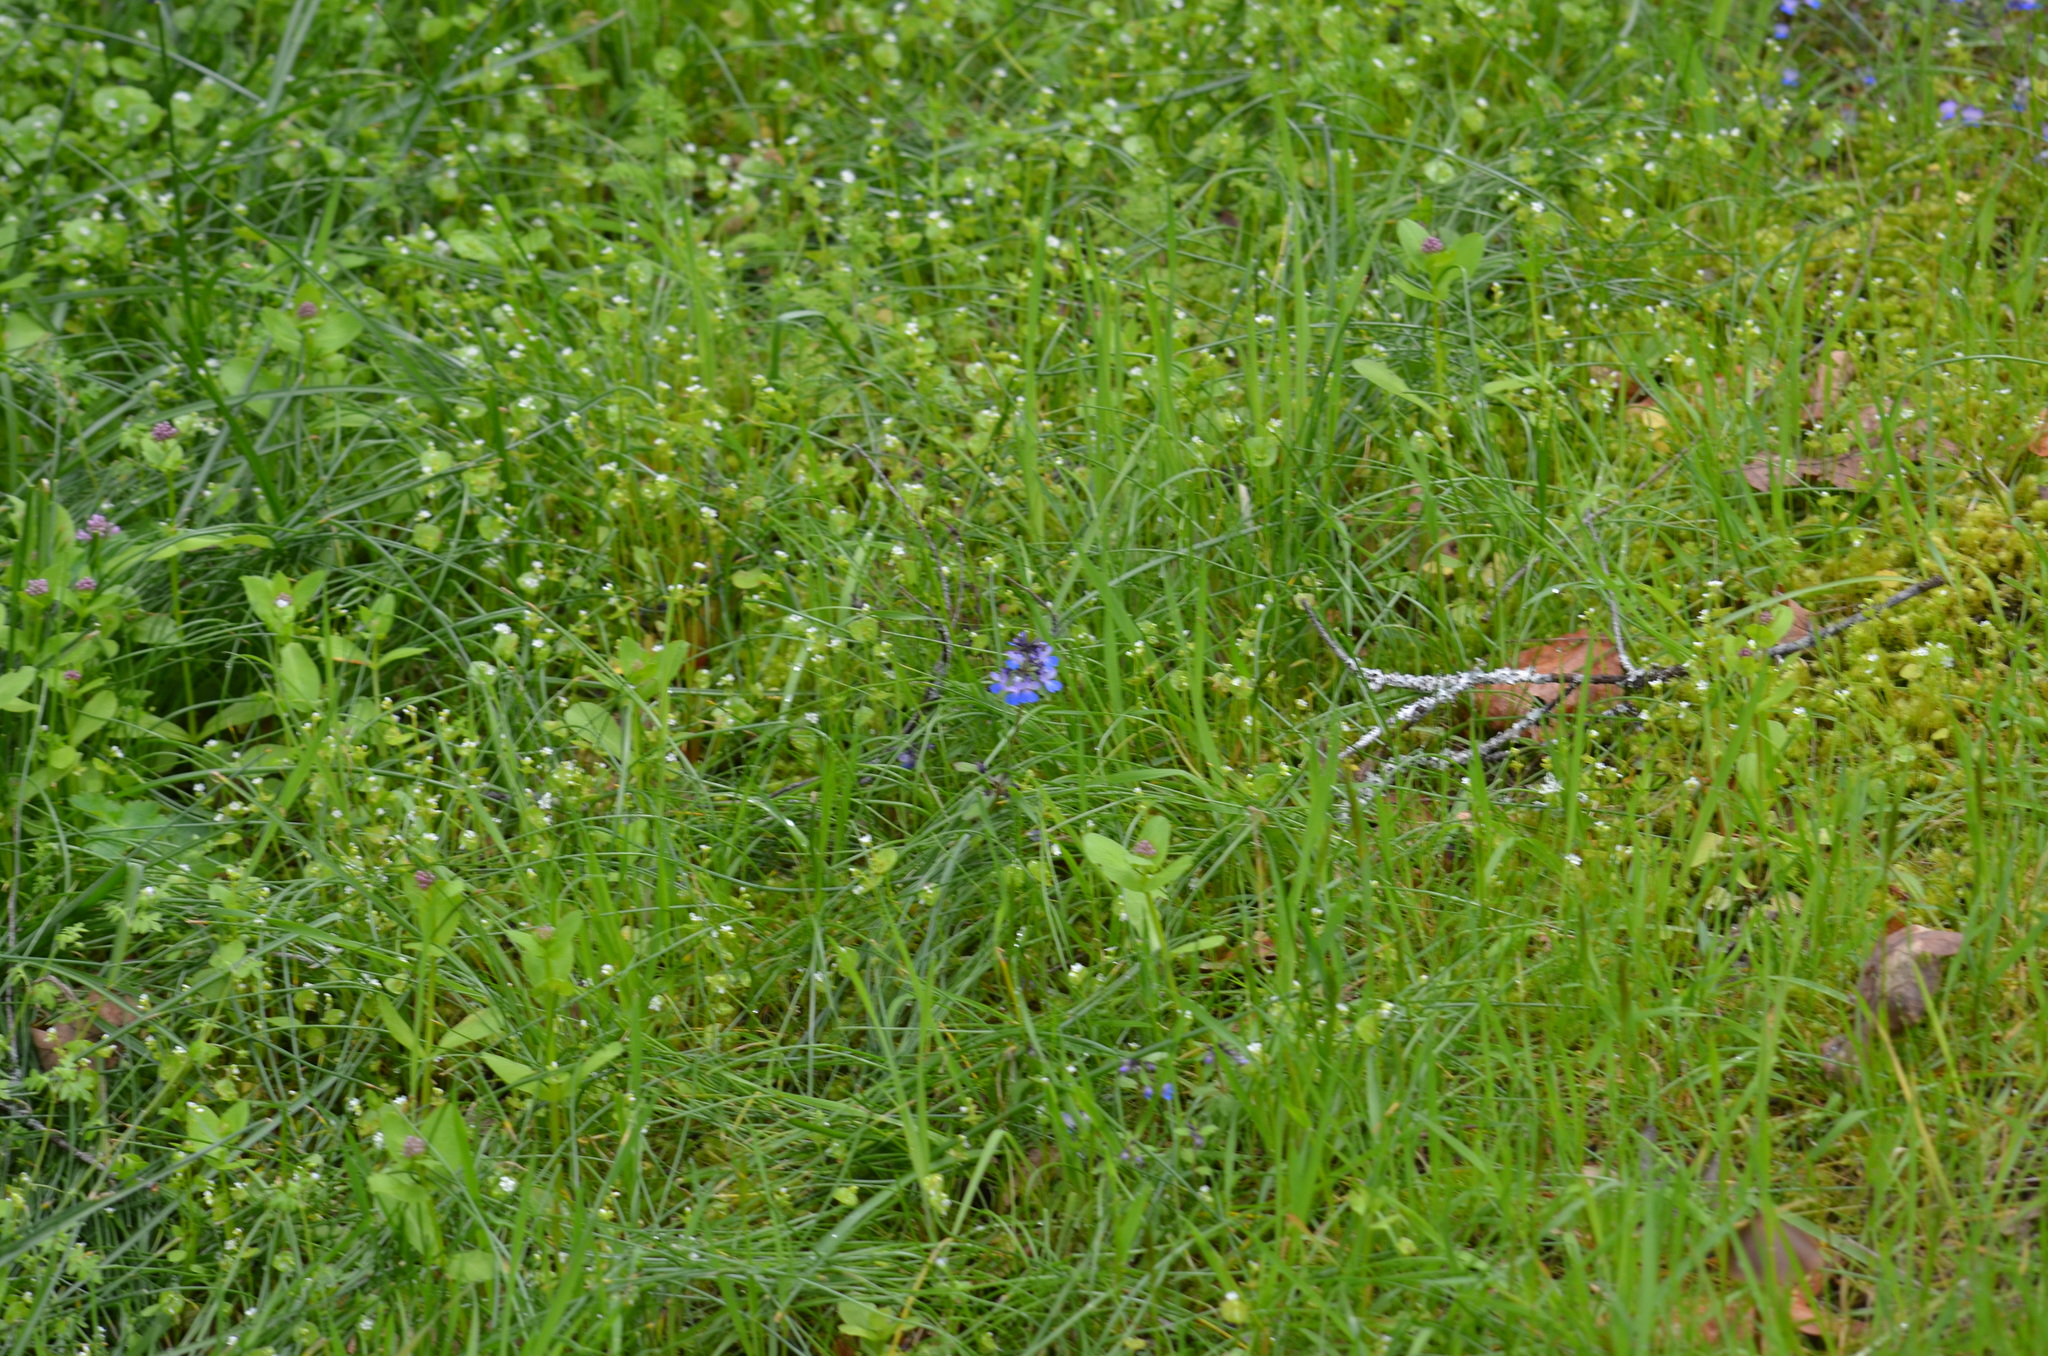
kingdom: Plantae
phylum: Tracheophyta
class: Magnoliopsida
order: Lamiales
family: Plantaginaceae
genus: Collinsia
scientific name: Collinsia grandiflora
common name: Large-flower blue-eyed-mary
